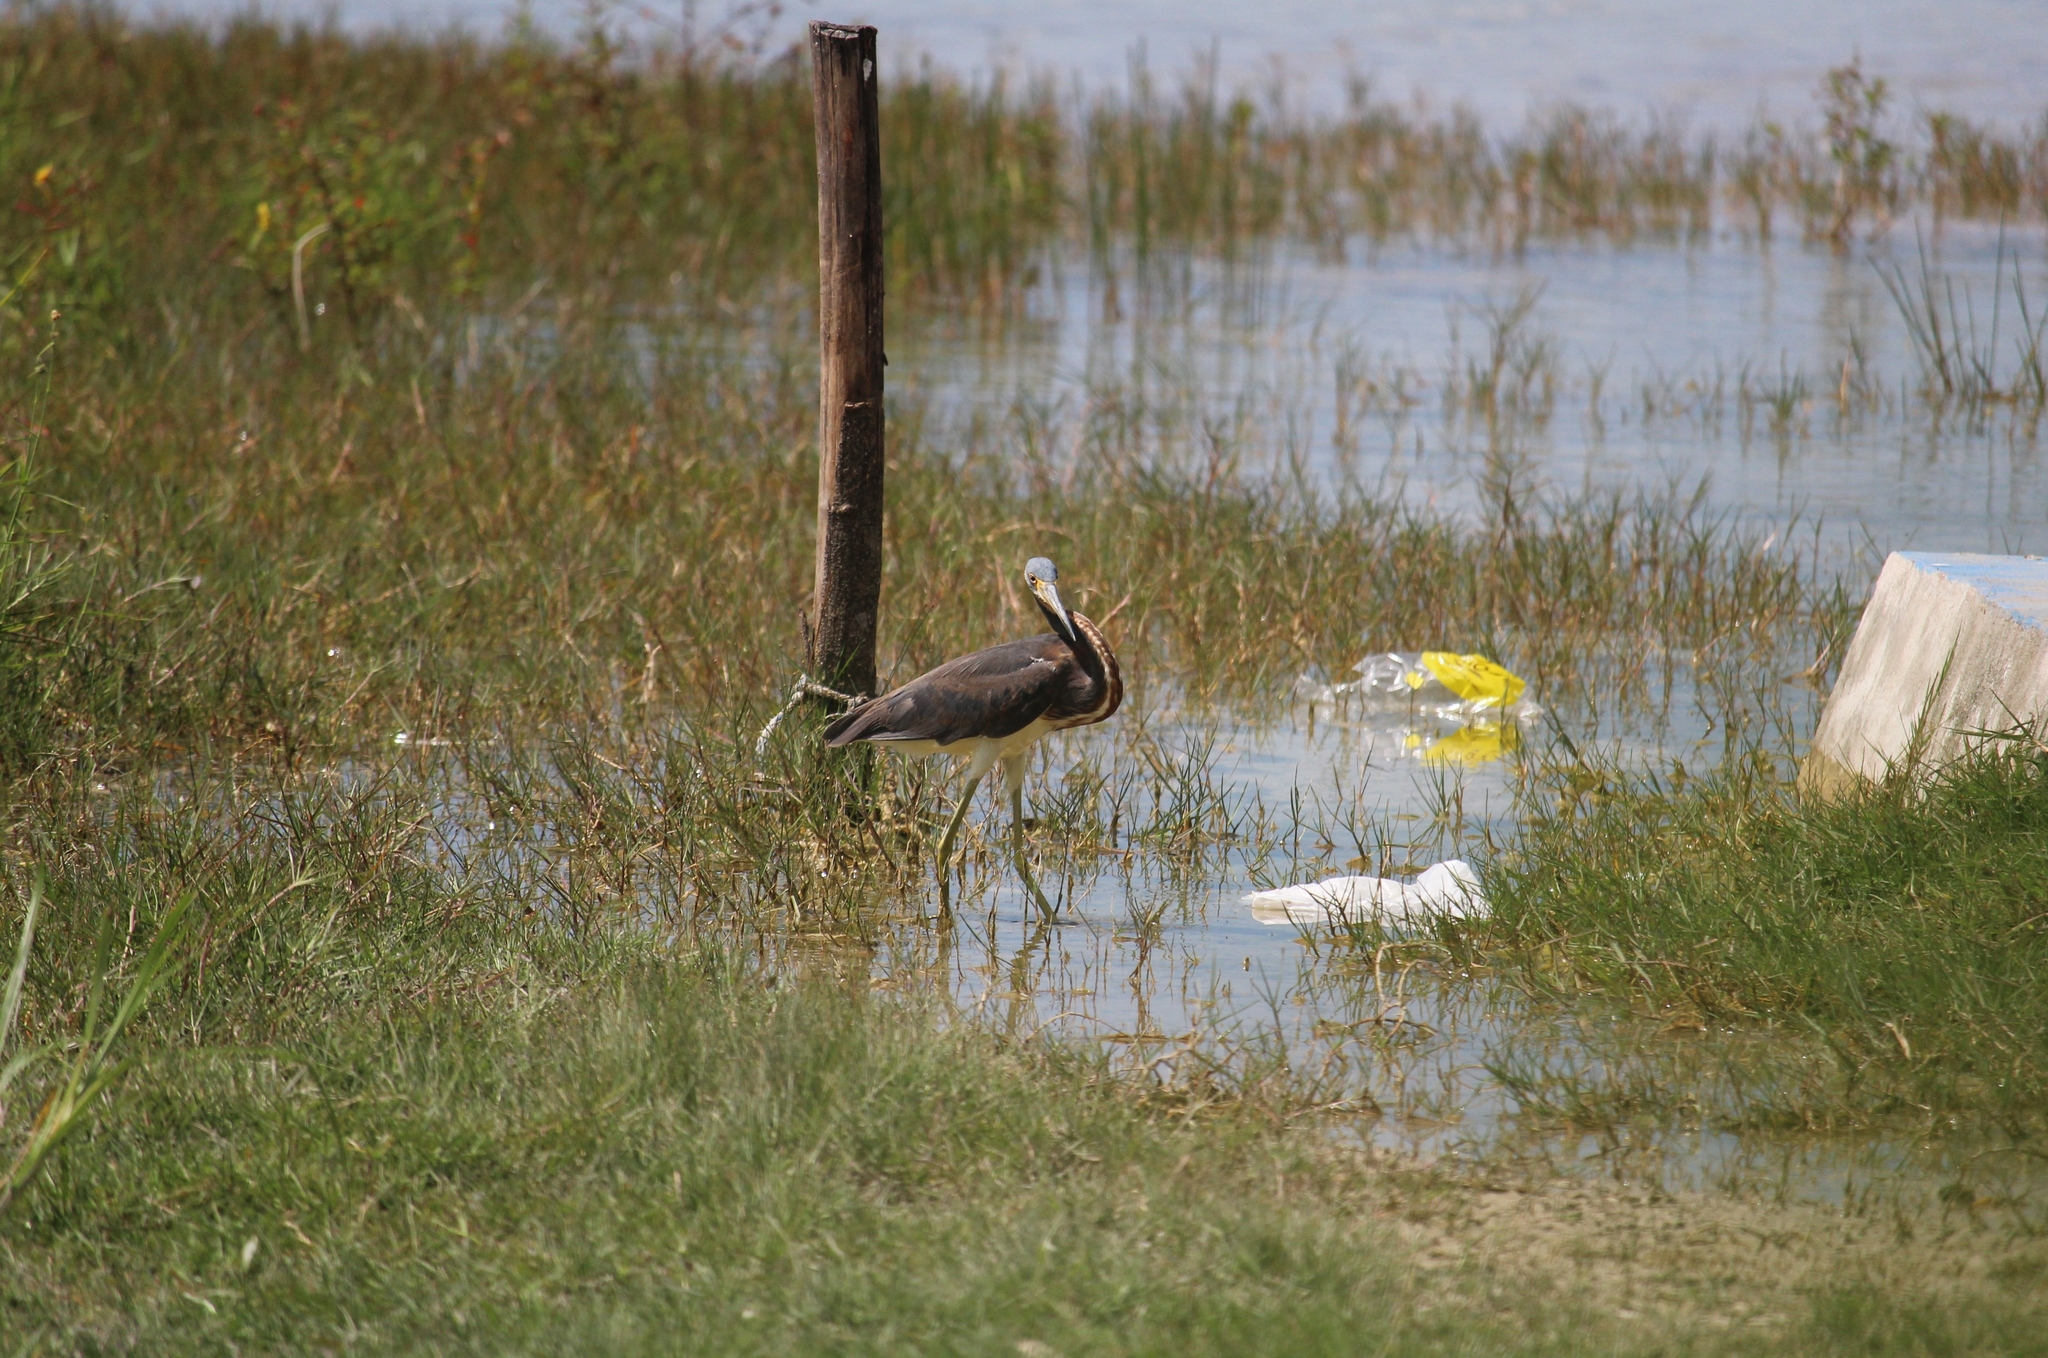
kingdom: Animalia
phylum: Chordata
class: Aves
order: Pelecaniformes
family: Ardeidae
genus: Egretta
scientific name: Egretta tricolor
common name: Tricolored heron
